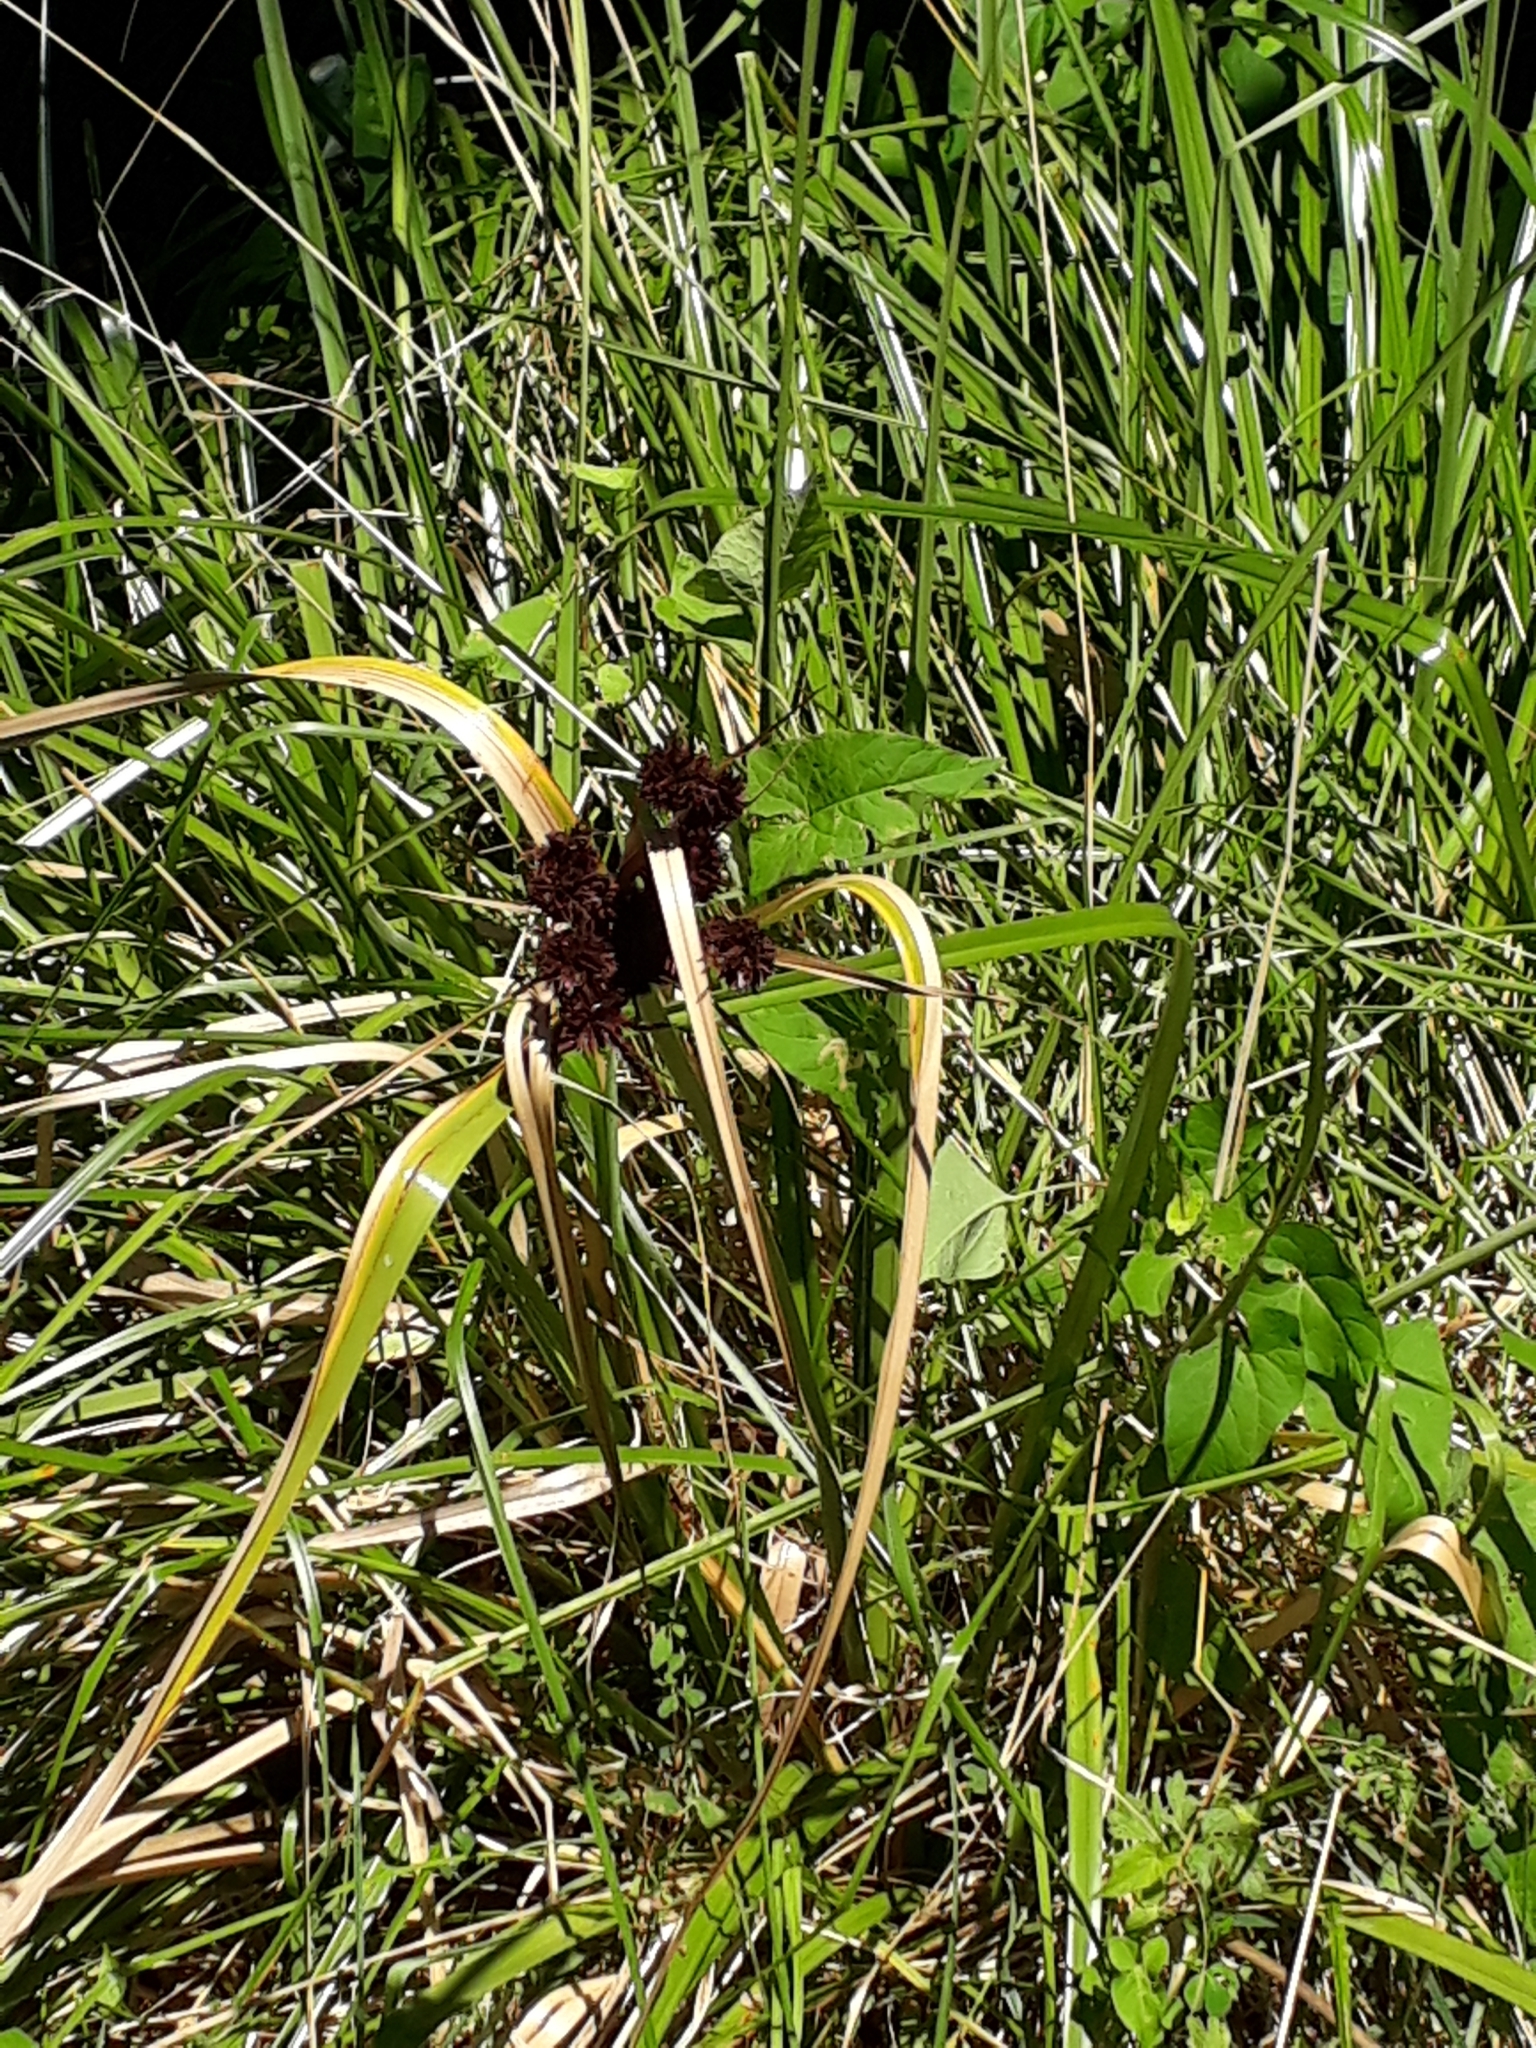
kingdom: Plantae
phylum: Tracheophyta
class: Liliopsida
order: Poales
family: Cyperaceae
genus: Cyperus
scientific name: Cyperus ustulatus
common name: Giant umbrella-sedge
